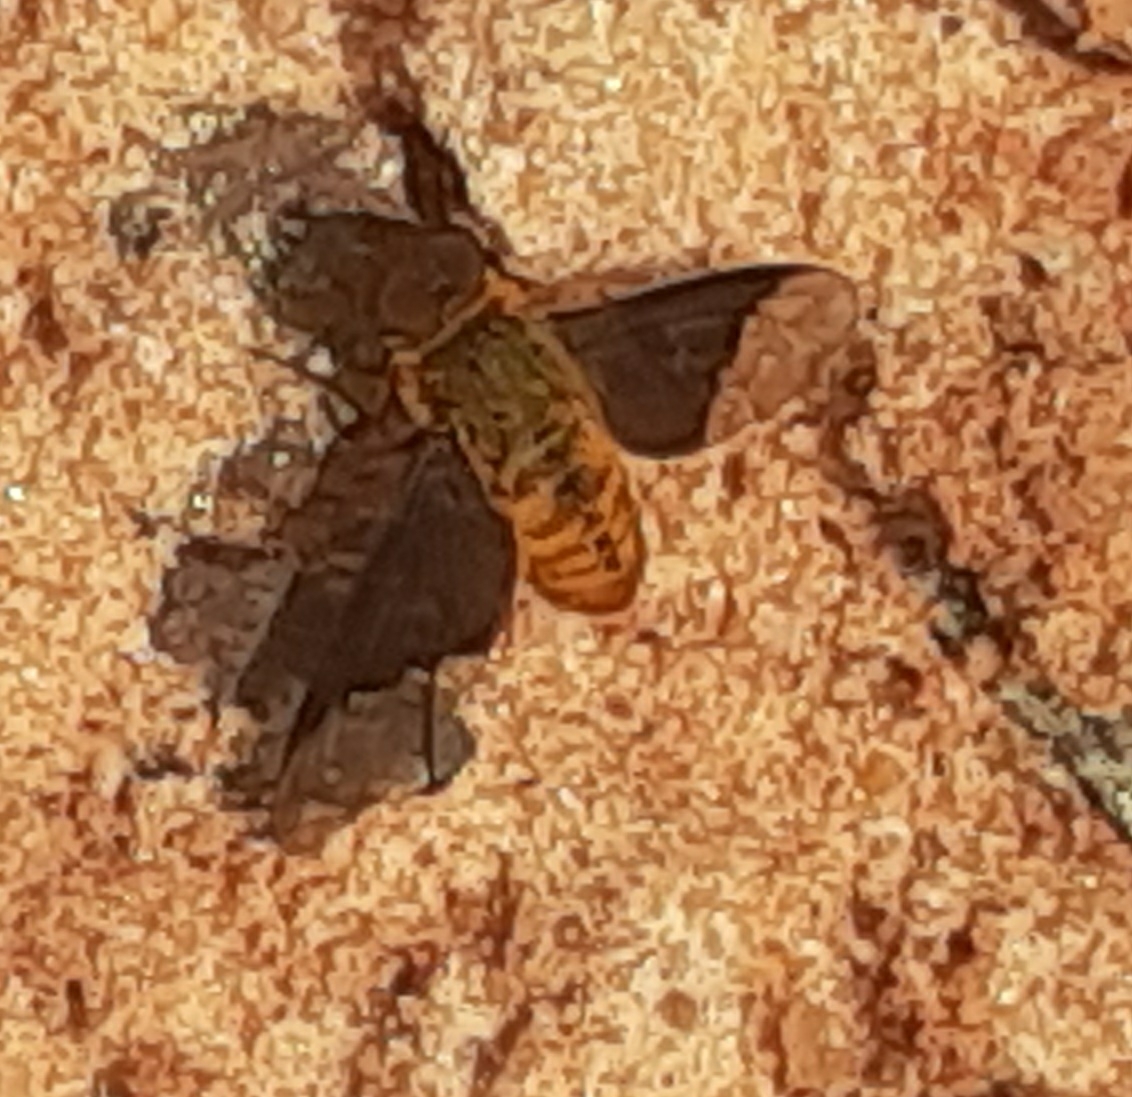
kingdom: Animalia
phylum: Arthropoda
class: Insecta
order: Diptera
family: Bombyliidae
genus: Chrysanthrax
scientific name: Chrysanthrax cypris
